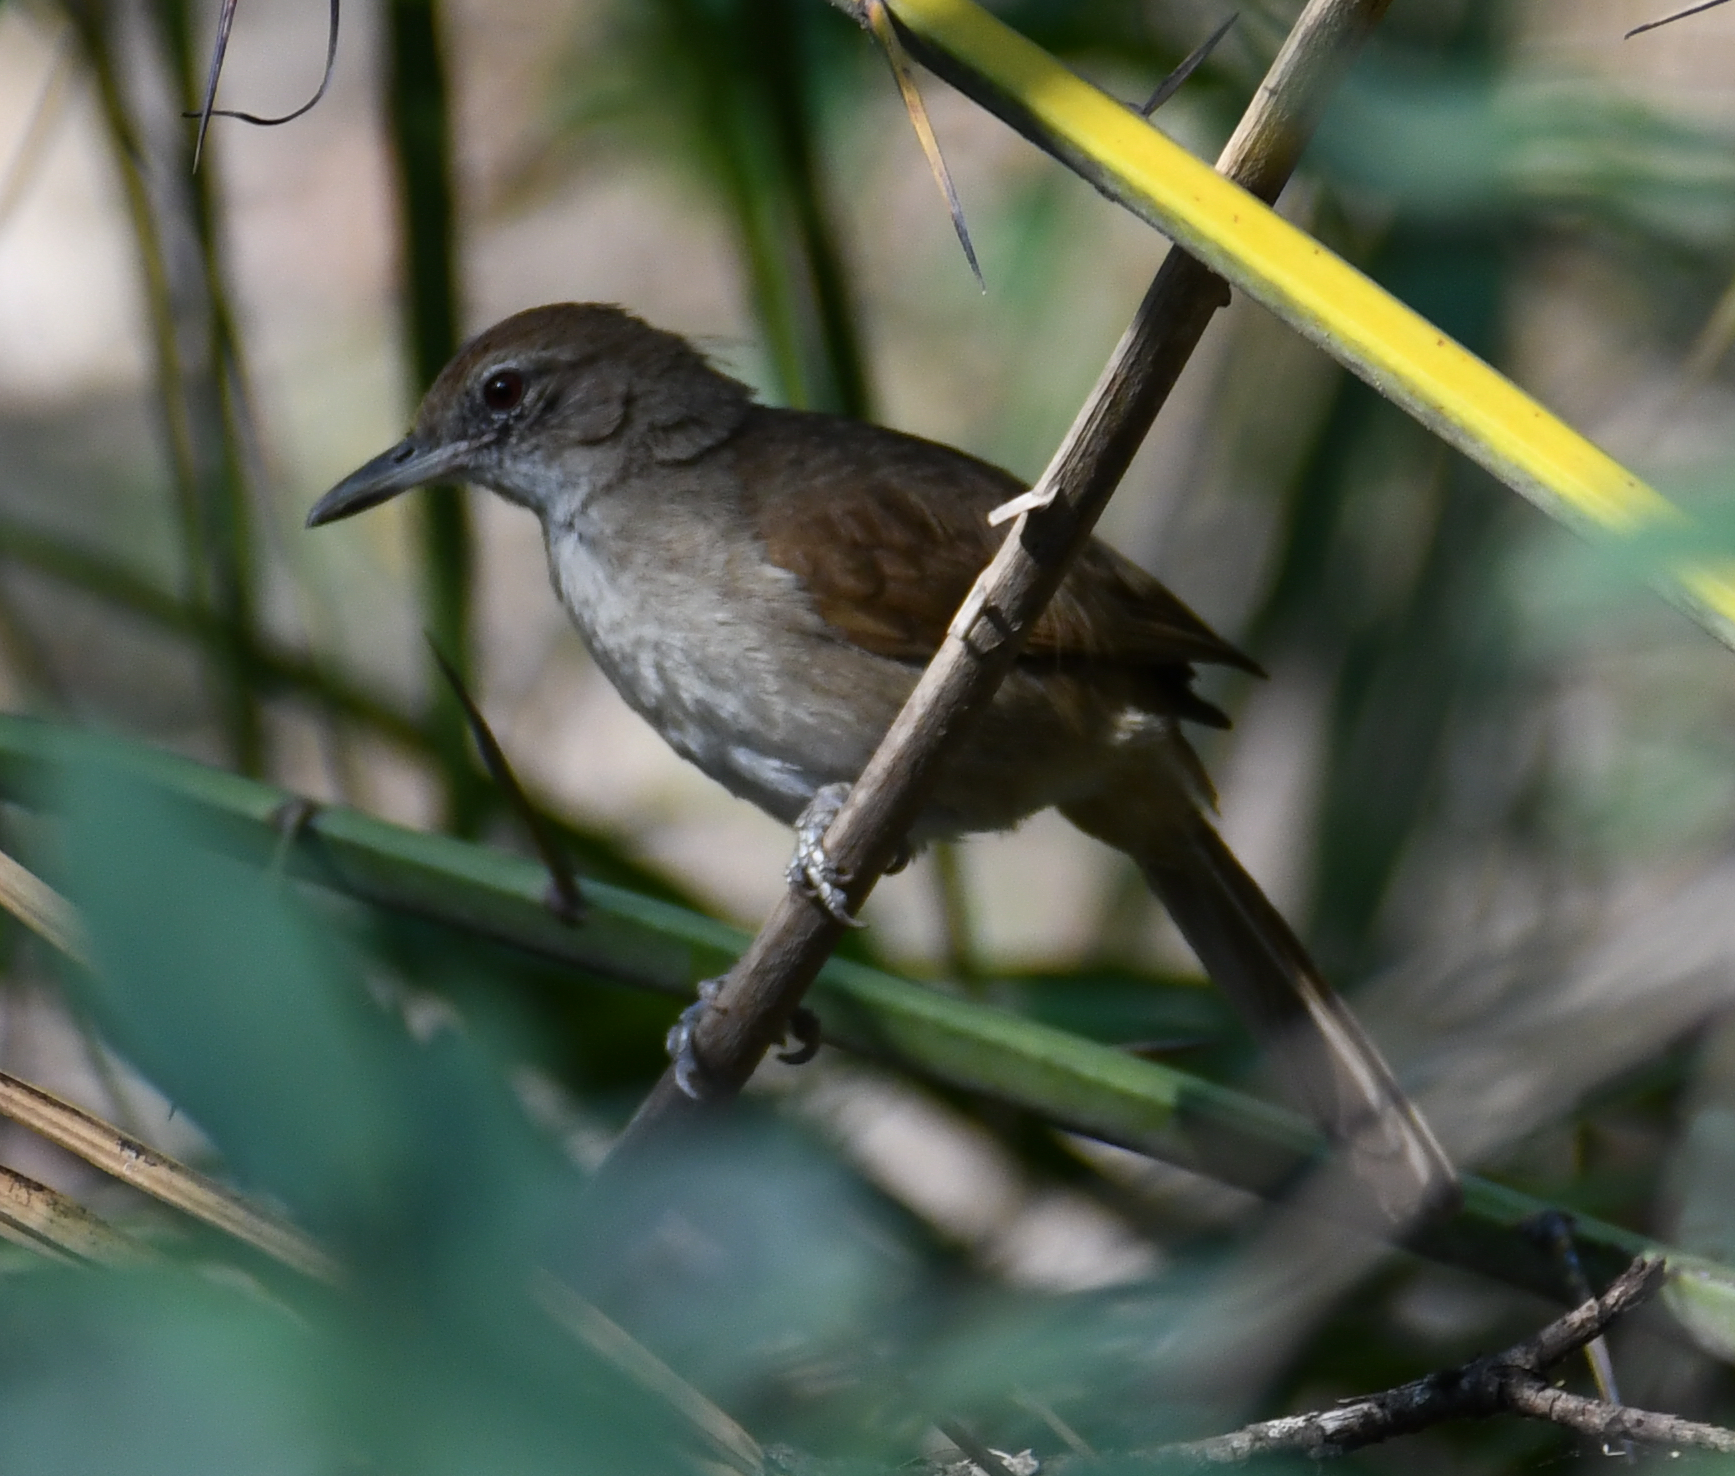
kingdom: Animalia
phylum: Chordata
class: Aves
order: Passeriformes
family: Pycnonotidae
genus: Phyllastrephus
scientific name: Phyllastrephus terrestris
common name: Terrestrial brownbul
